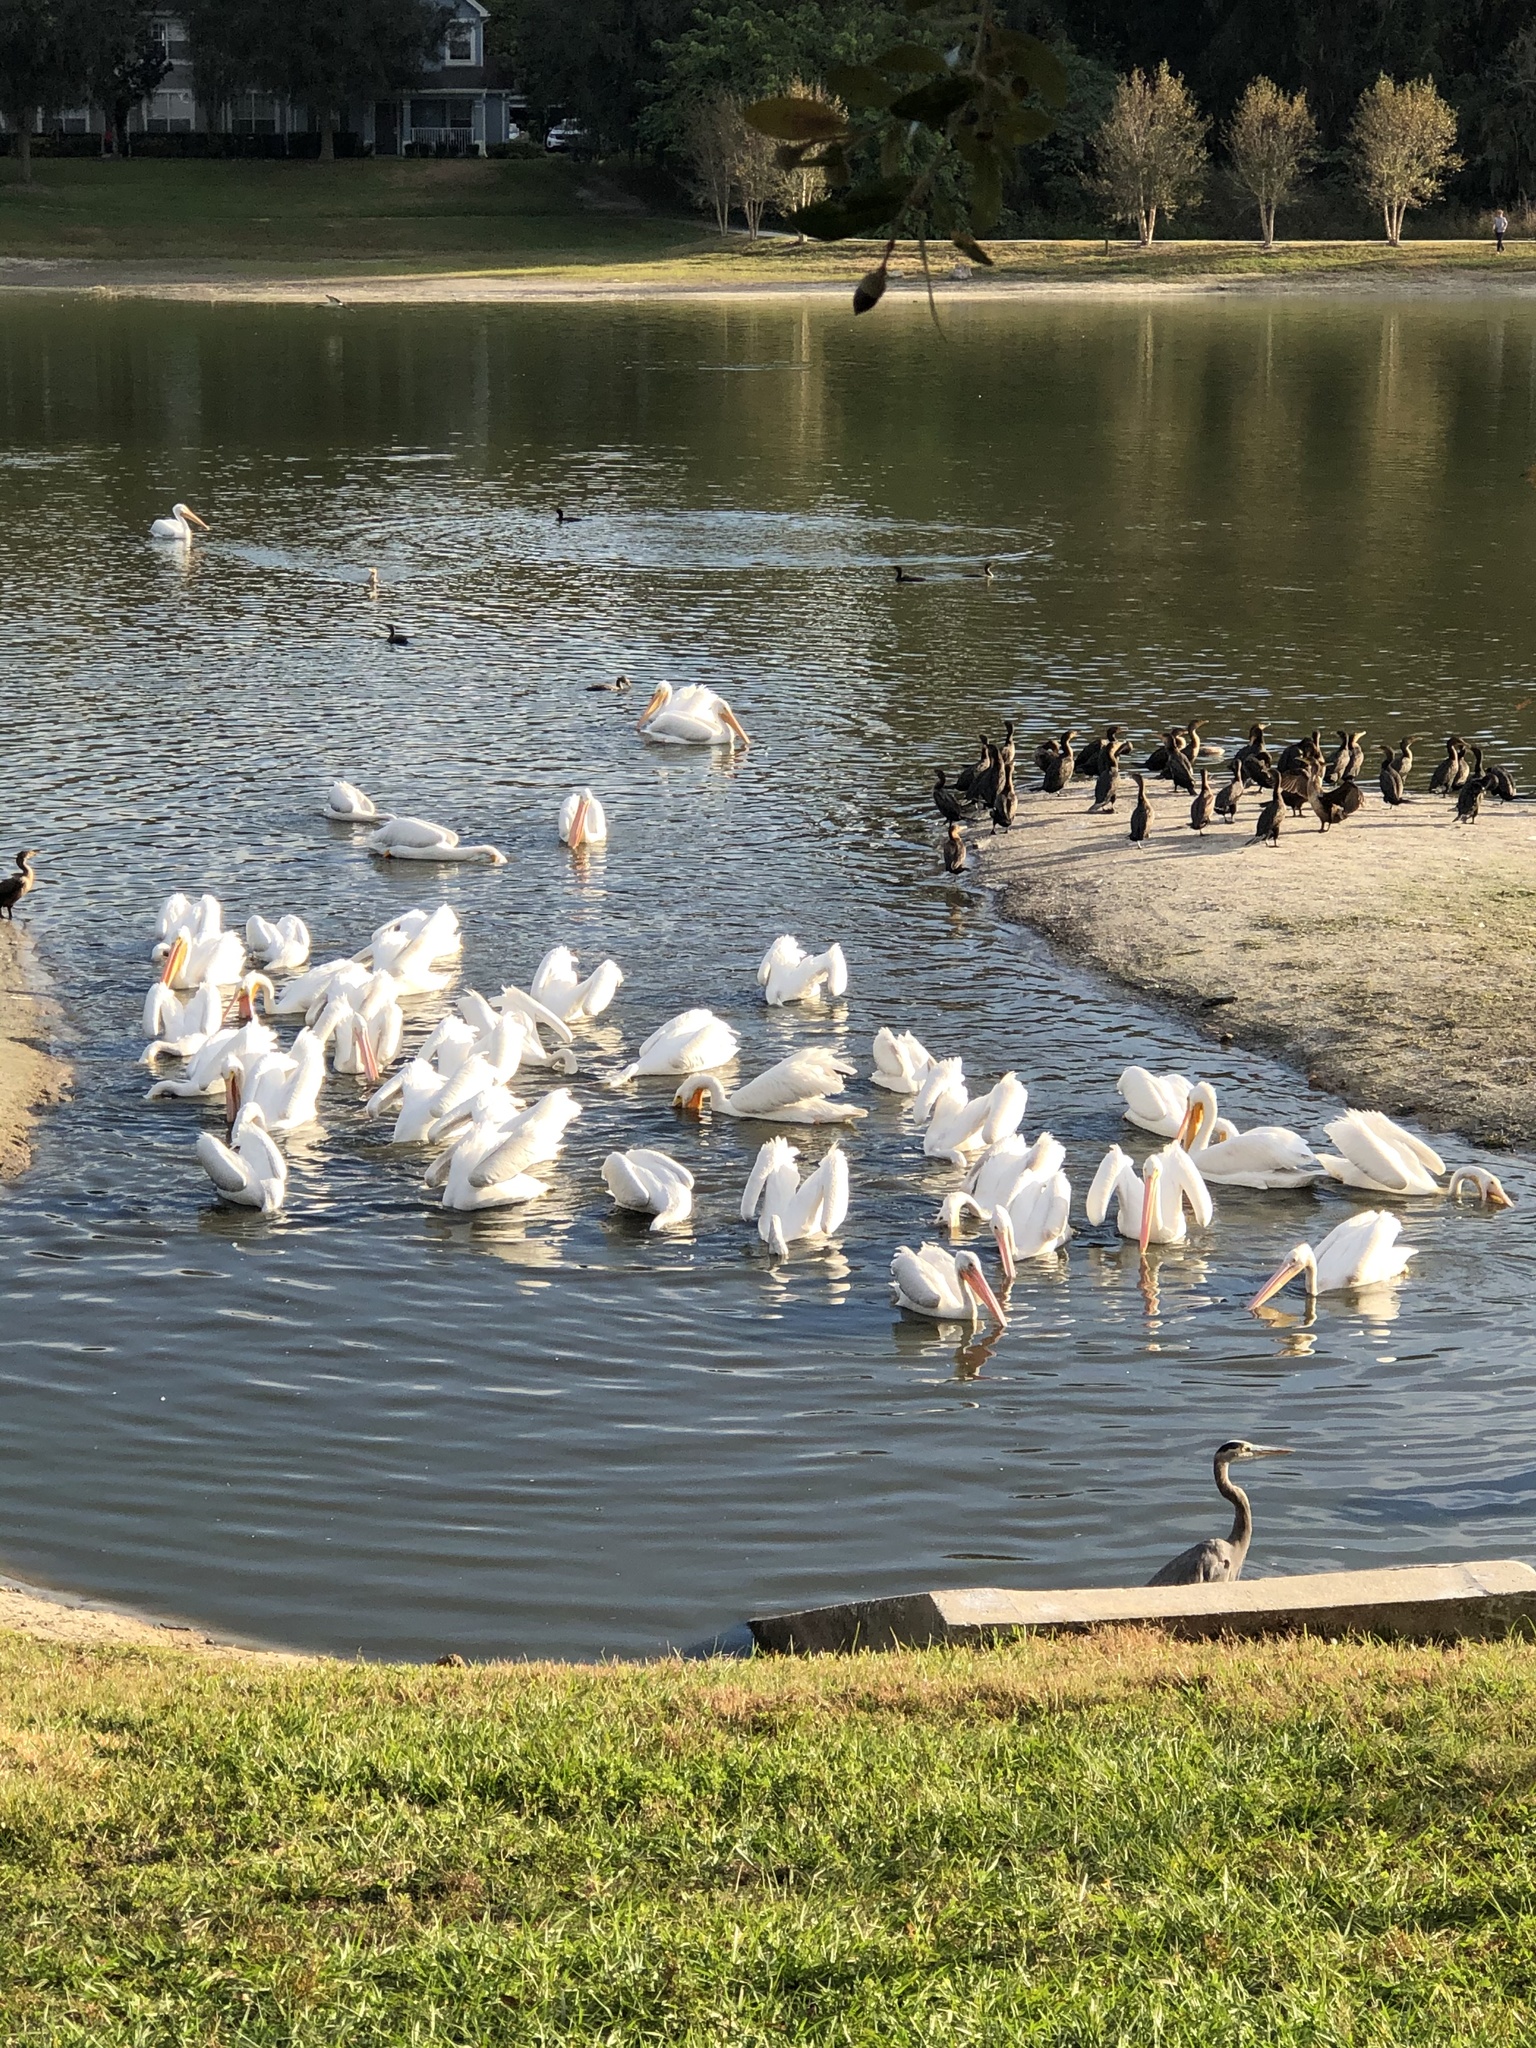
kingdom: Animalia
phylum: Chordata
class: Aves
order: Pelecaniformes
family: Pelecanidae
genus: Pelecanus
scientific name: Pelecanus erythrorhynchos
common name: American white pelican
